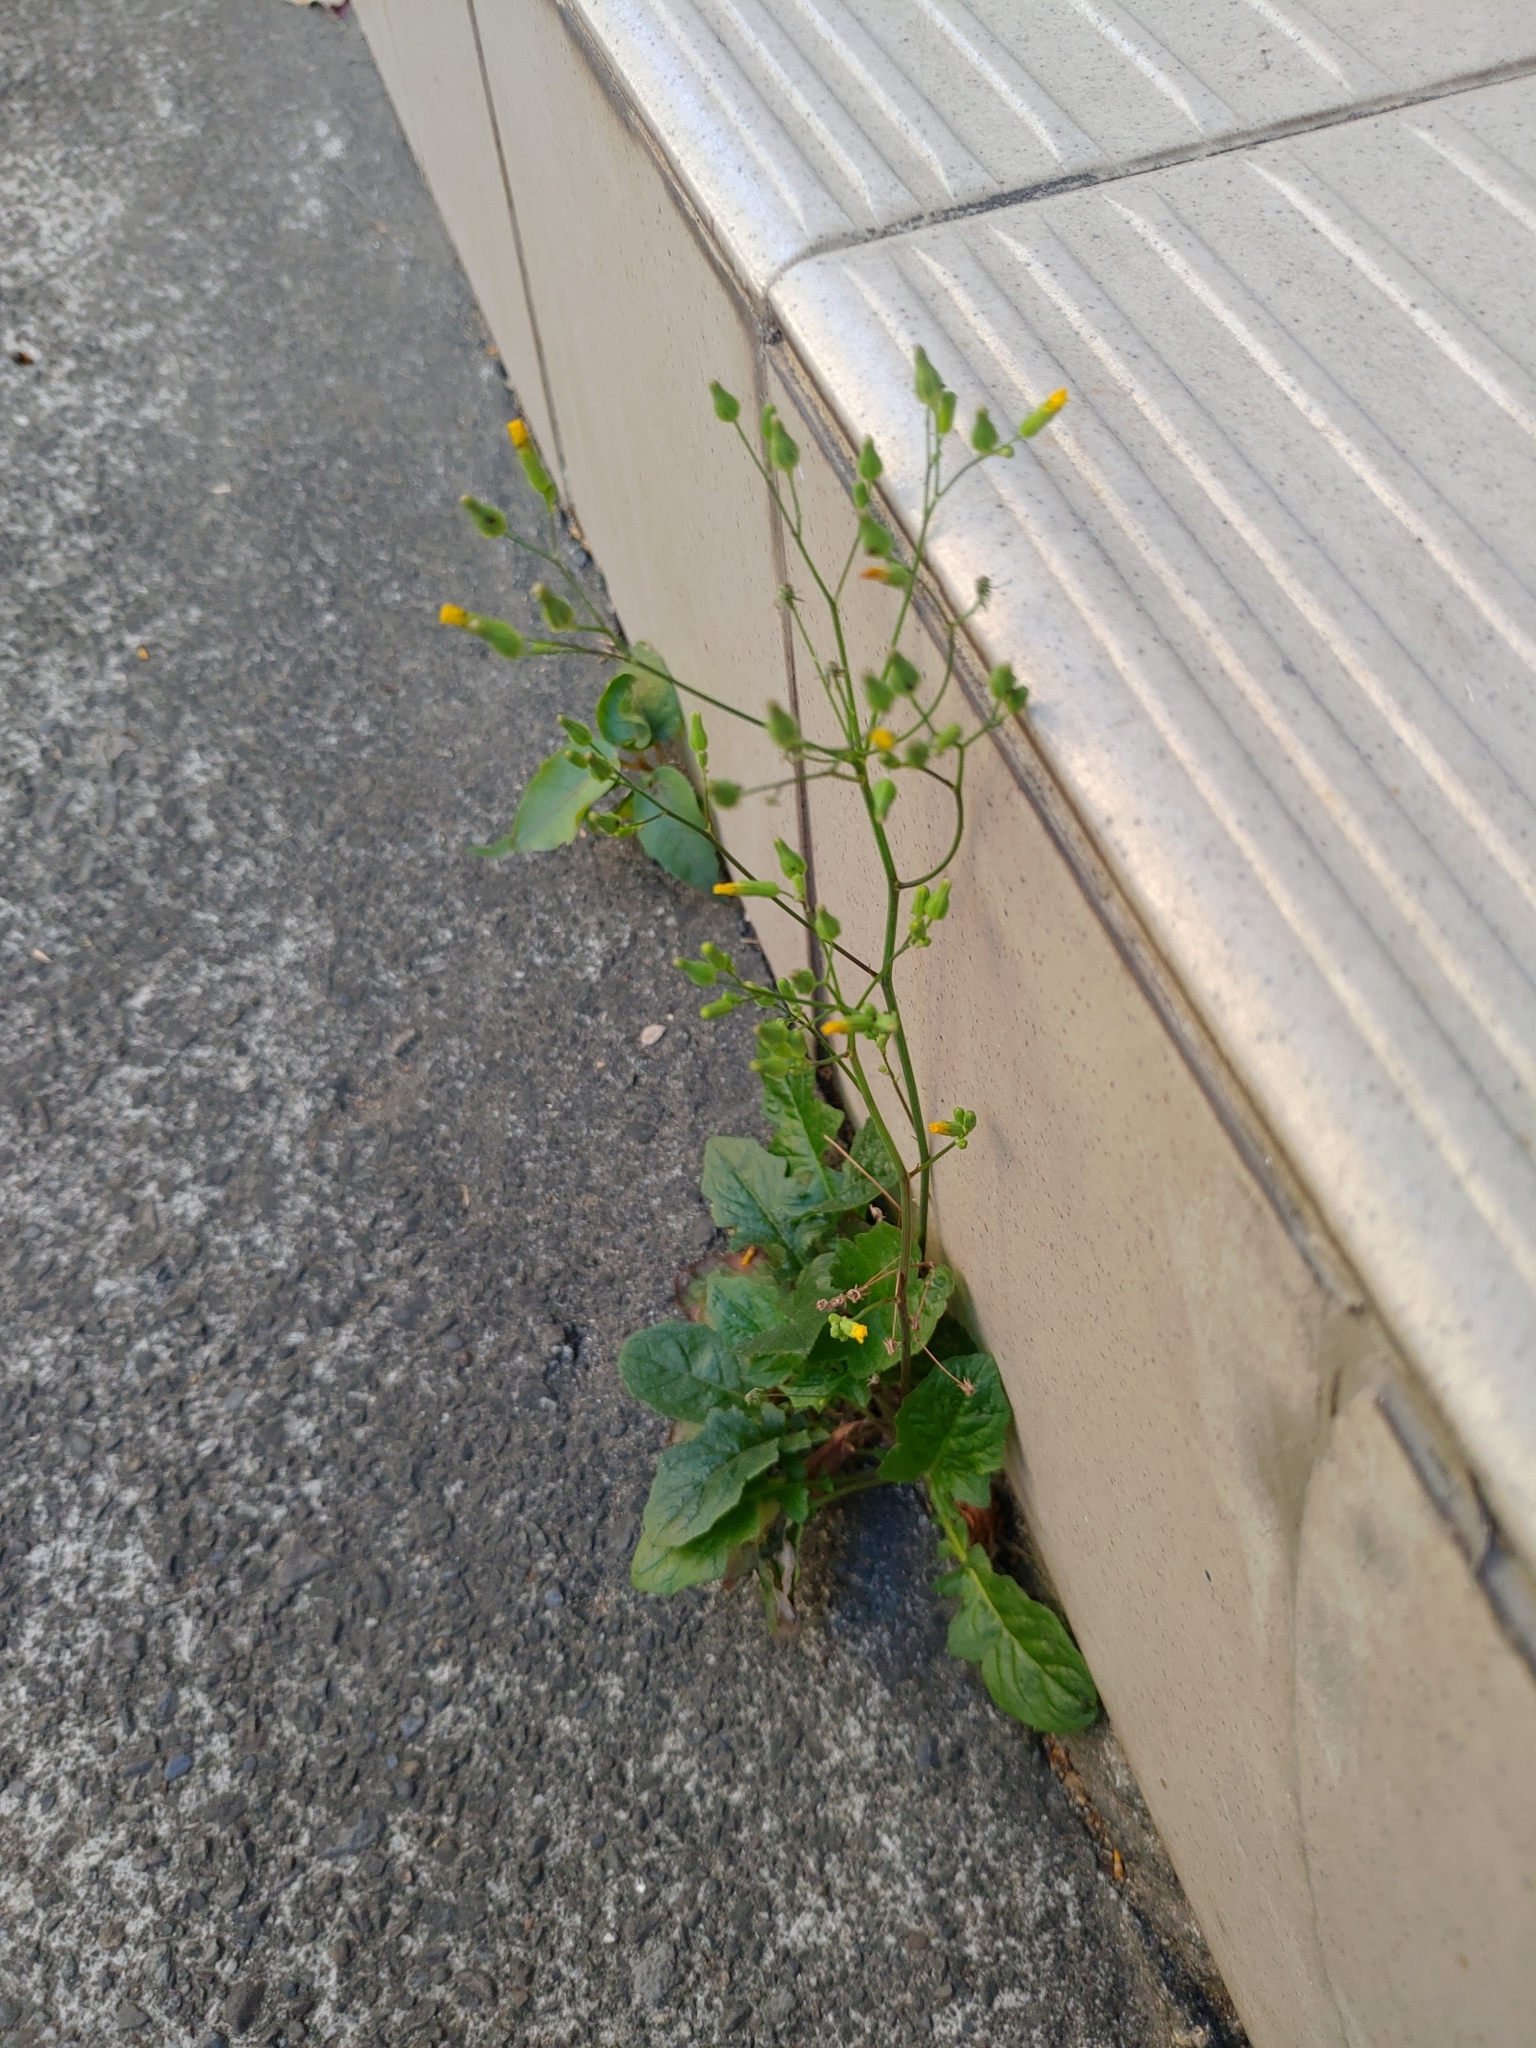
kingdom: Plantae
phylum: Tracheophyta
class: Magnoliopsida
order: Asterales
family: Asteraceae
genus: Youngia
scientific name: Youngia japonica
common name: Oriental false hawksbeard
